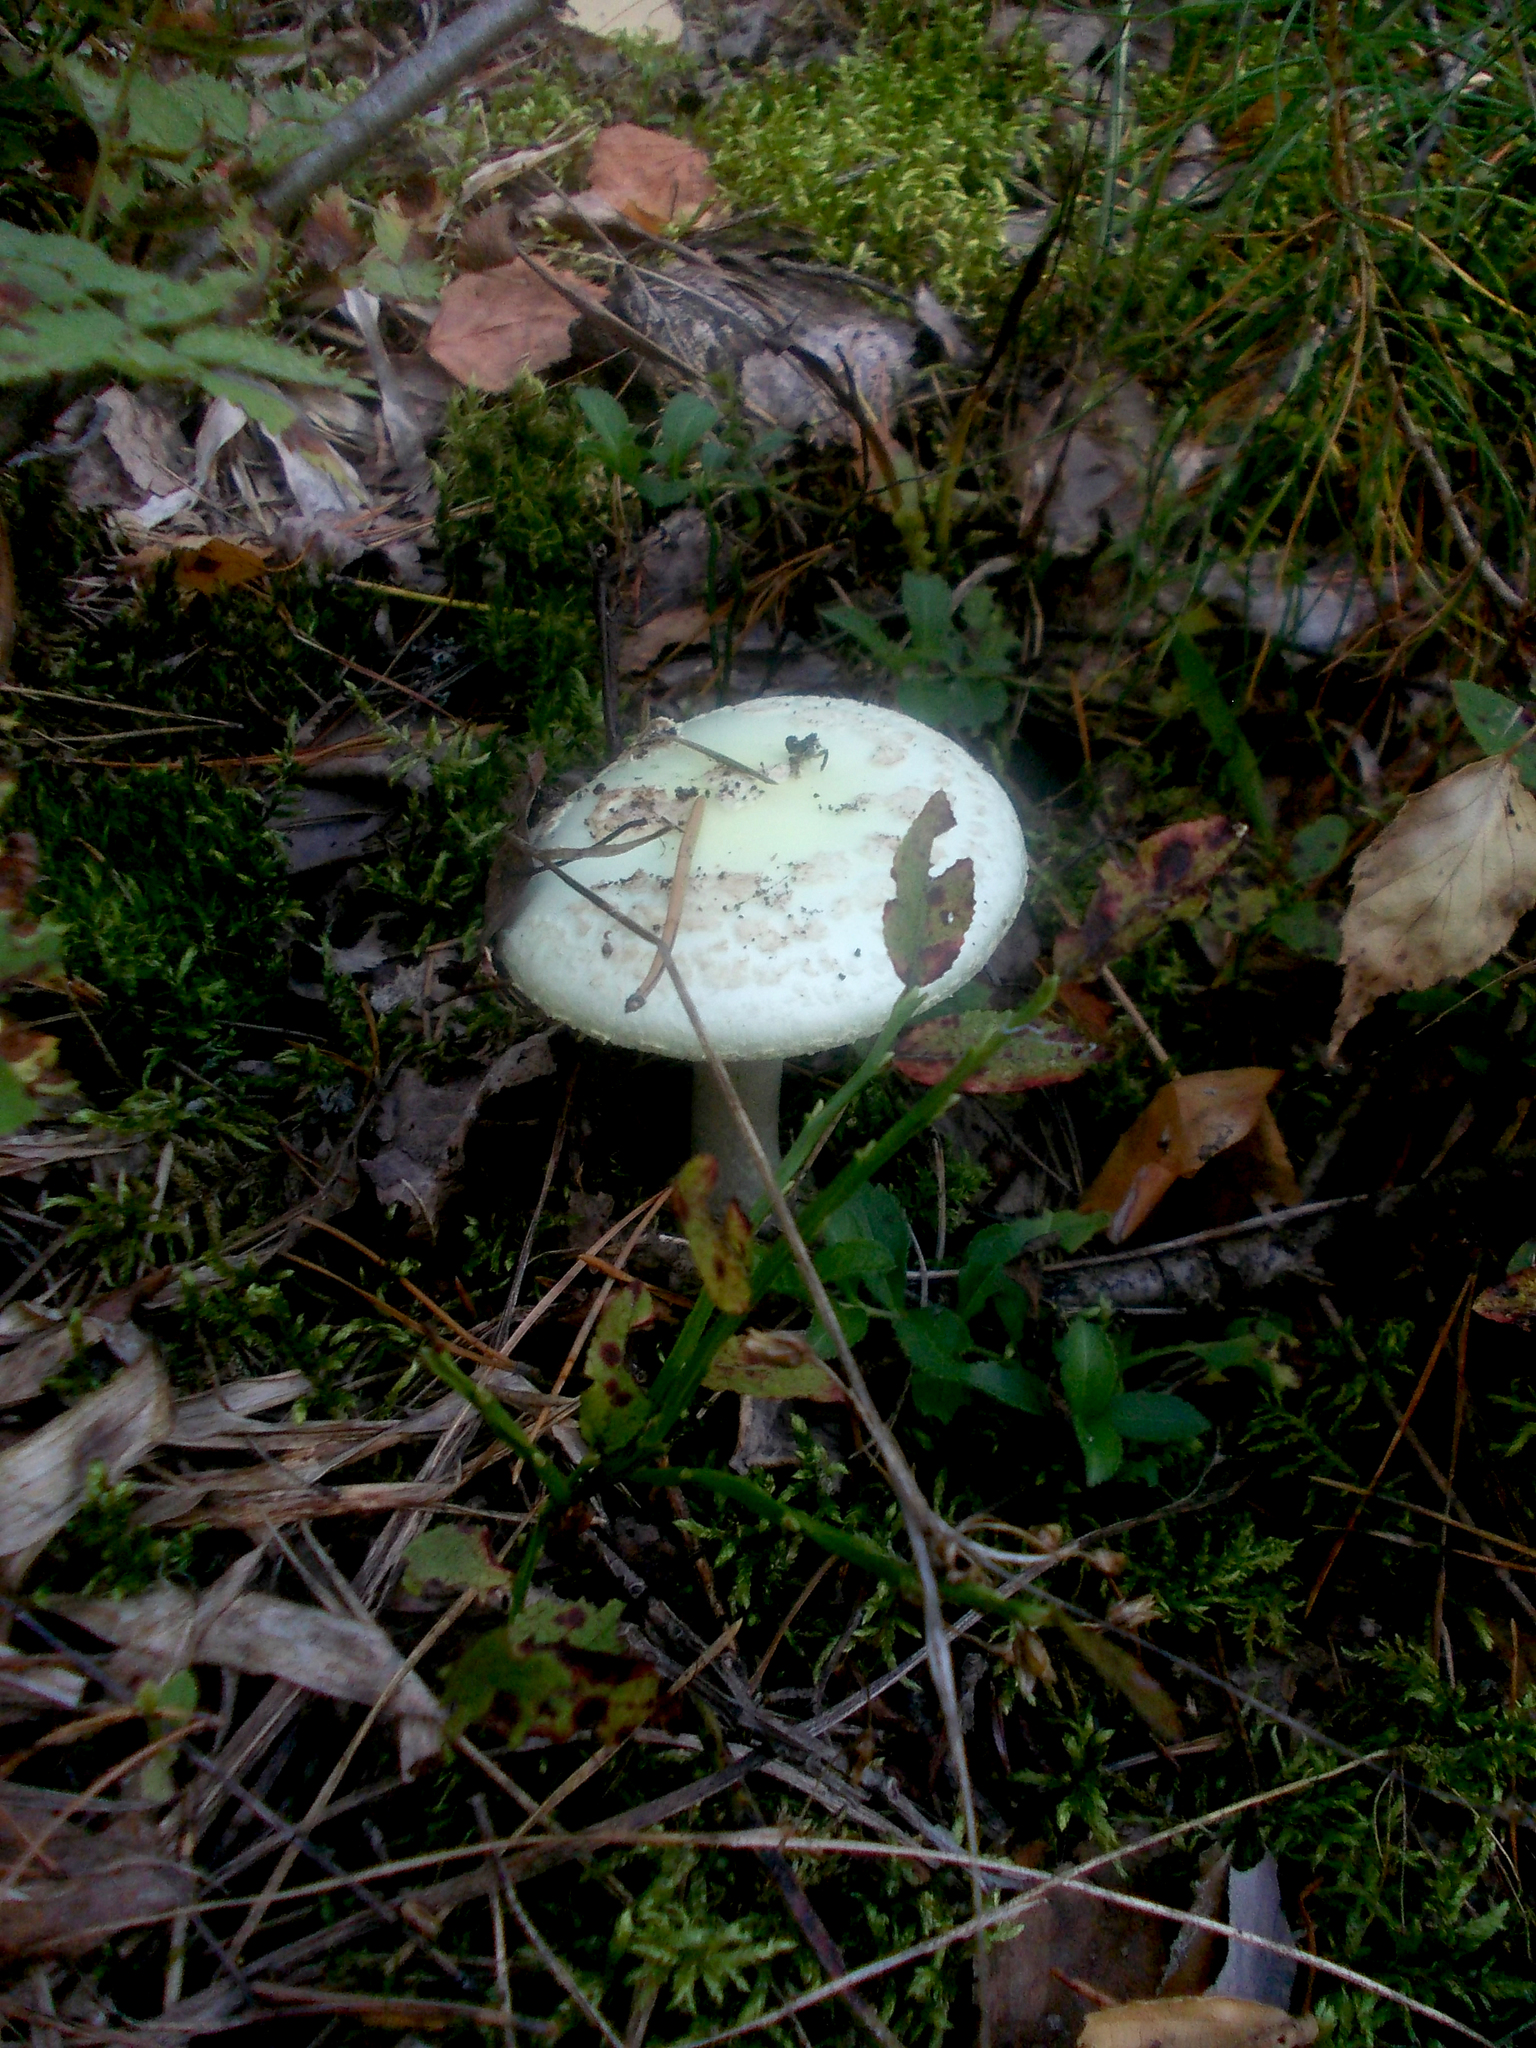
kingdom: Fungi
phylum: Basidiomycota
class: Agaricomycetes
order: Agaricales
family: Amanitaceae
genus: Amanita
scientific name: Amanita citrina
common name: False death-cap
